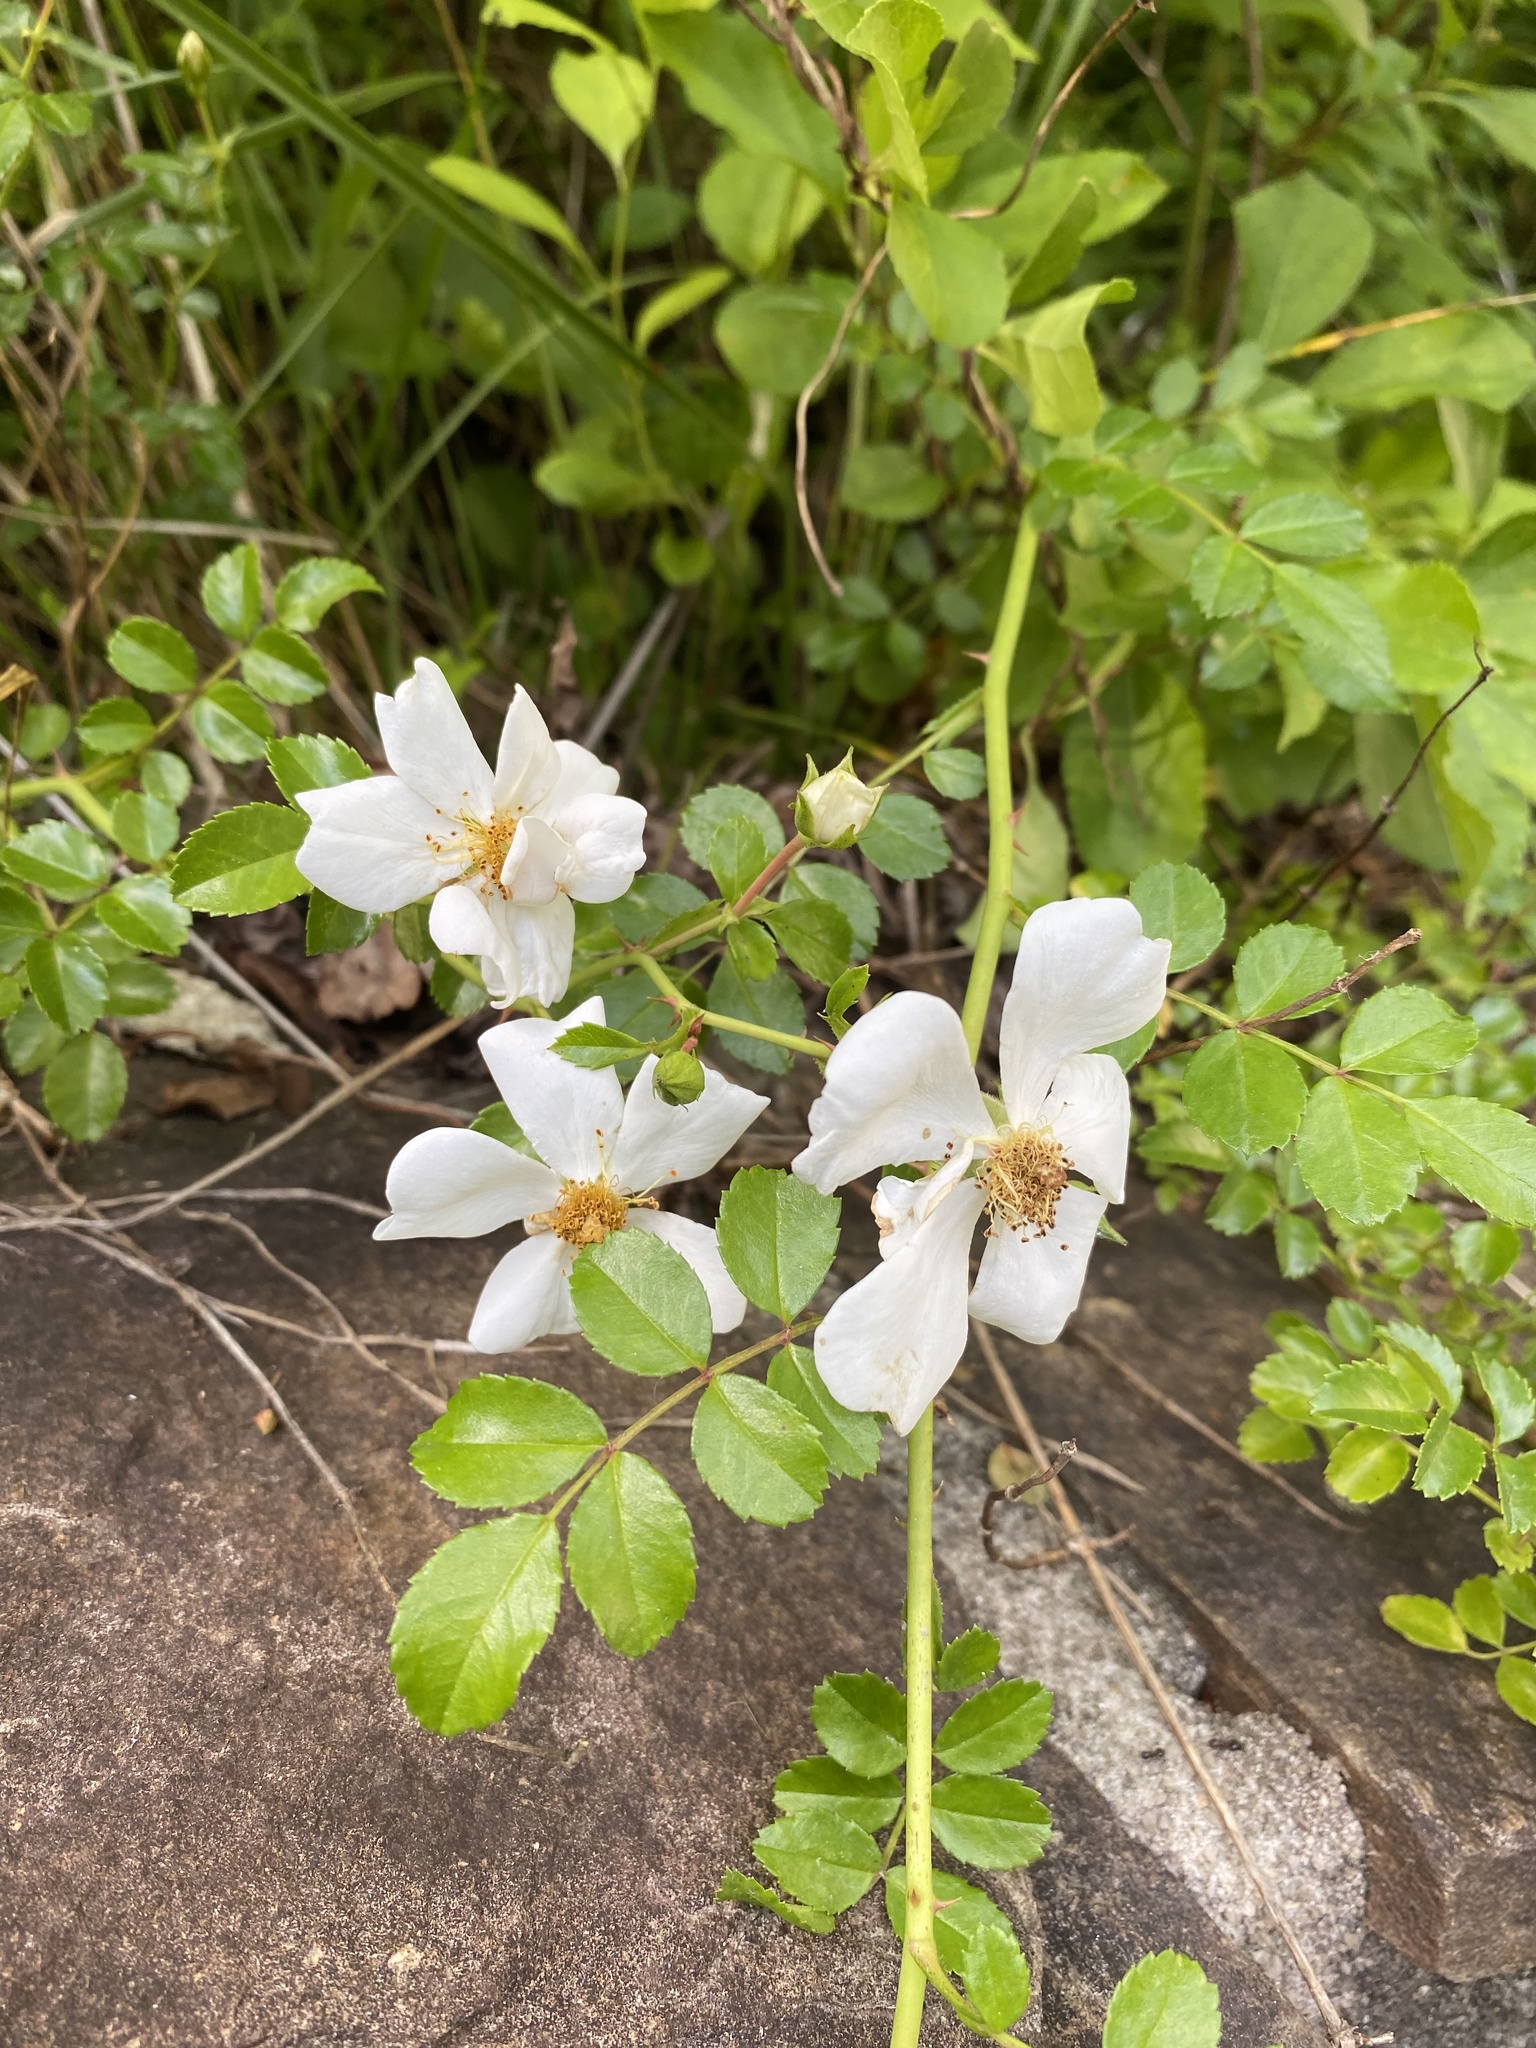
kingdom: Plantae
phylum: Tracheophyta
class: Magnoliopsida
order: Rosales
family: Rosaceae
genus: Rosa
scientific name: Rosa lucieae
